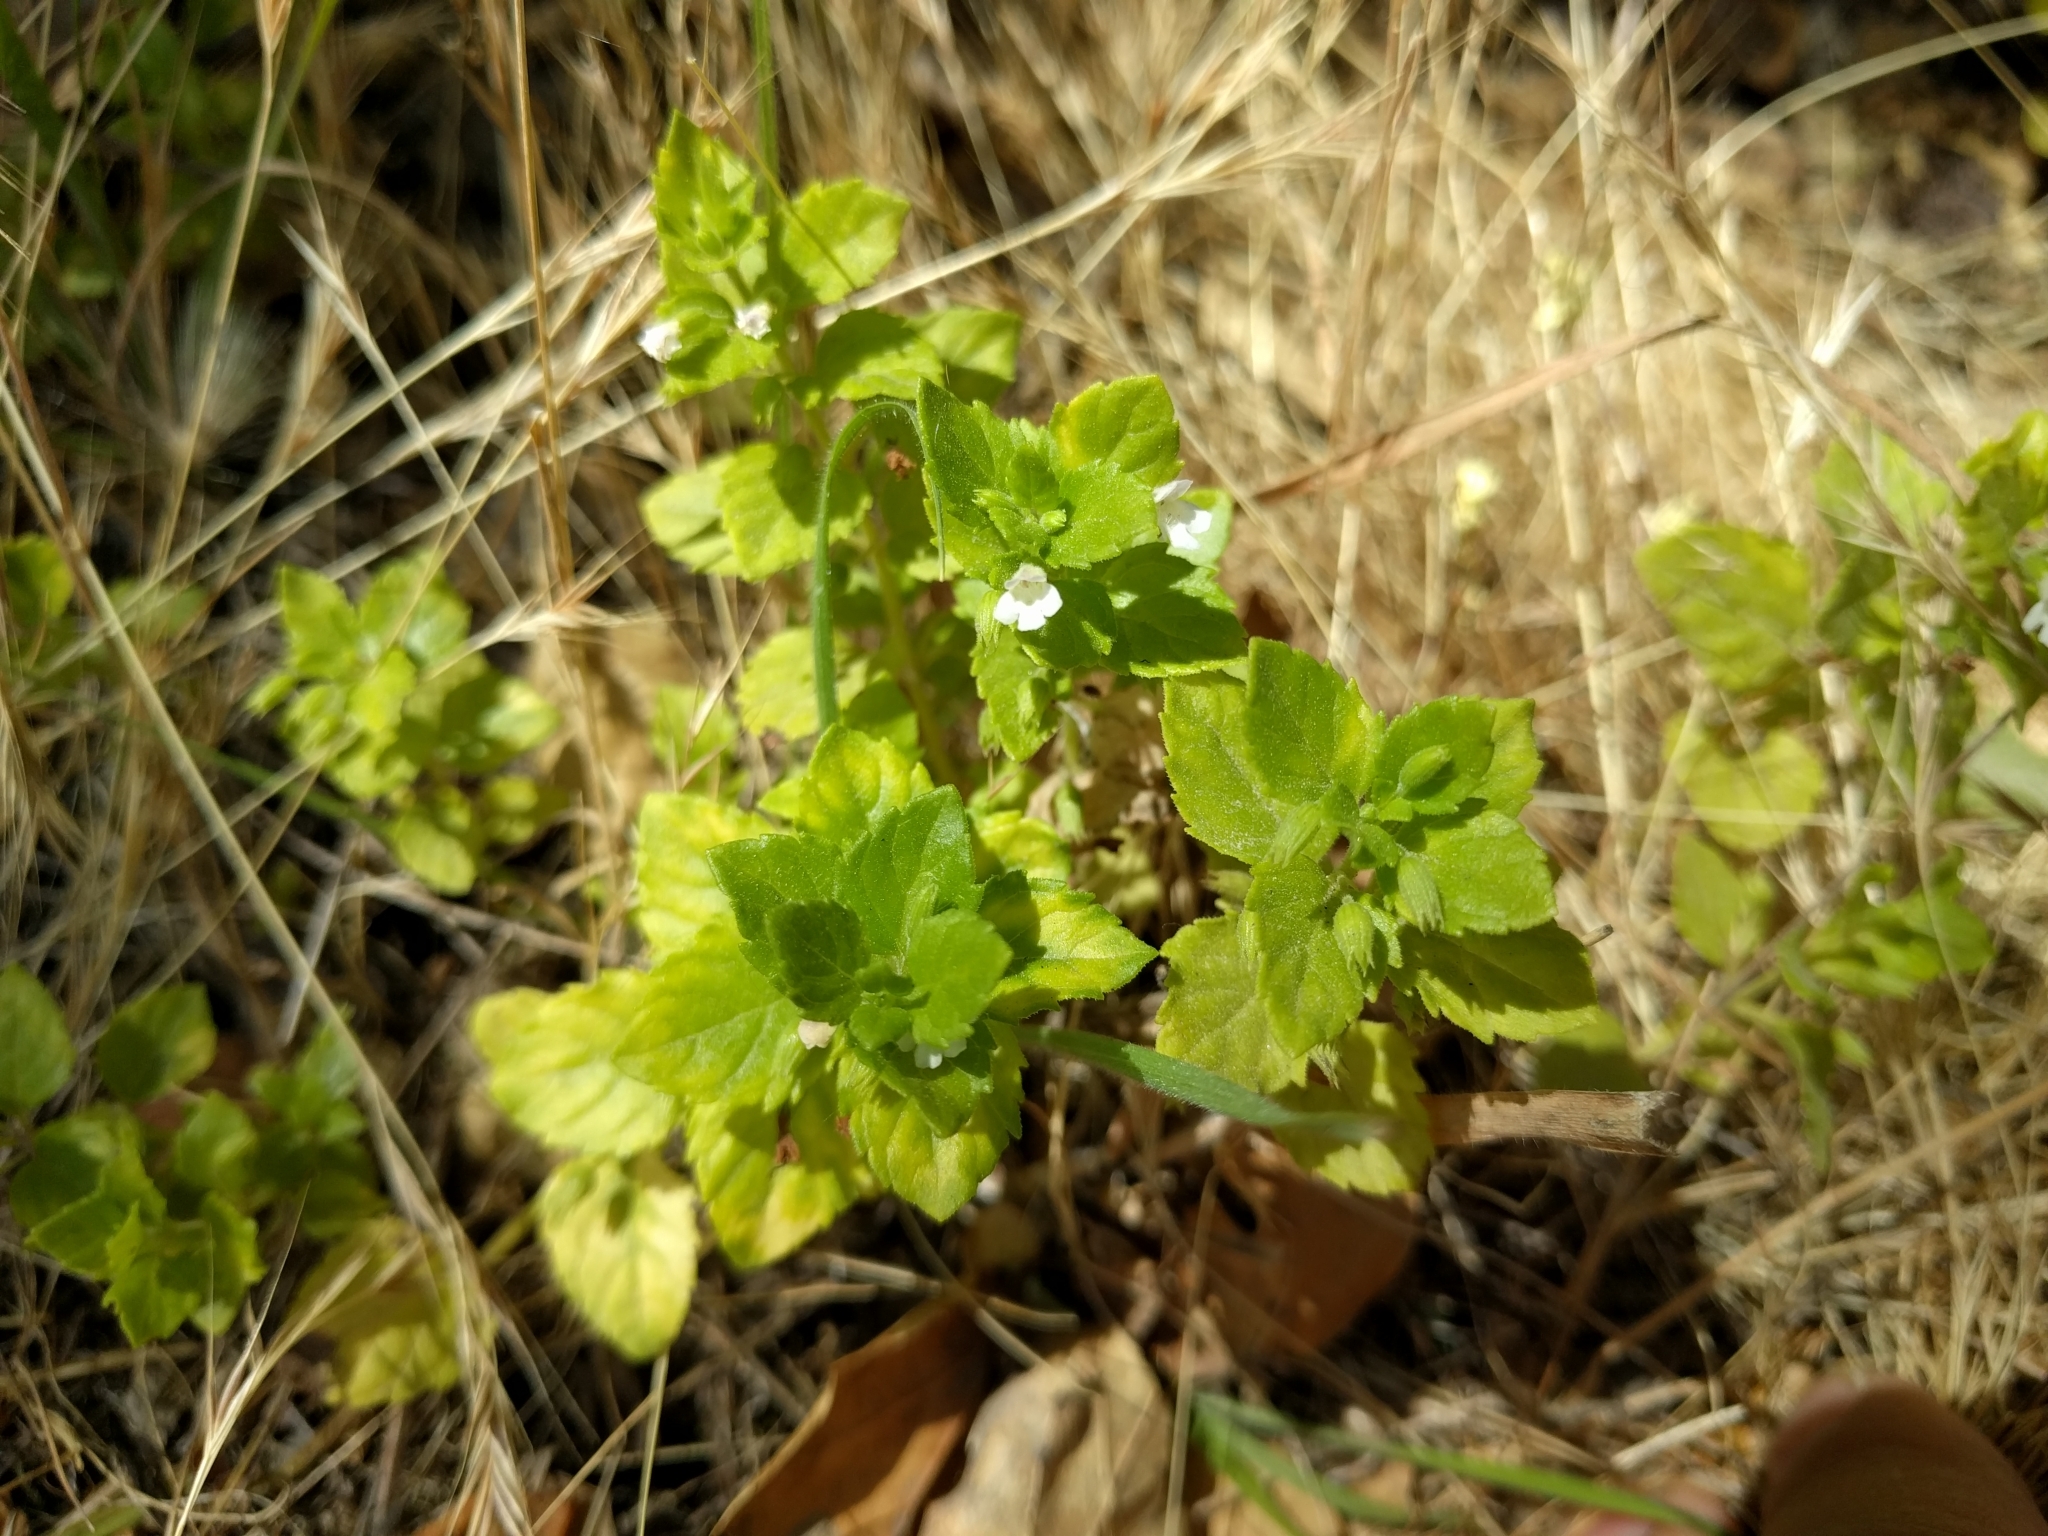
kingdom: Plantae
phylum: Tracheophyta
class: Magnoliopsida
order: Lamiales
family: Lamiaceae
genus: Micromeria
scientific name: Micromeria douglasii
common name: Yerba buena
